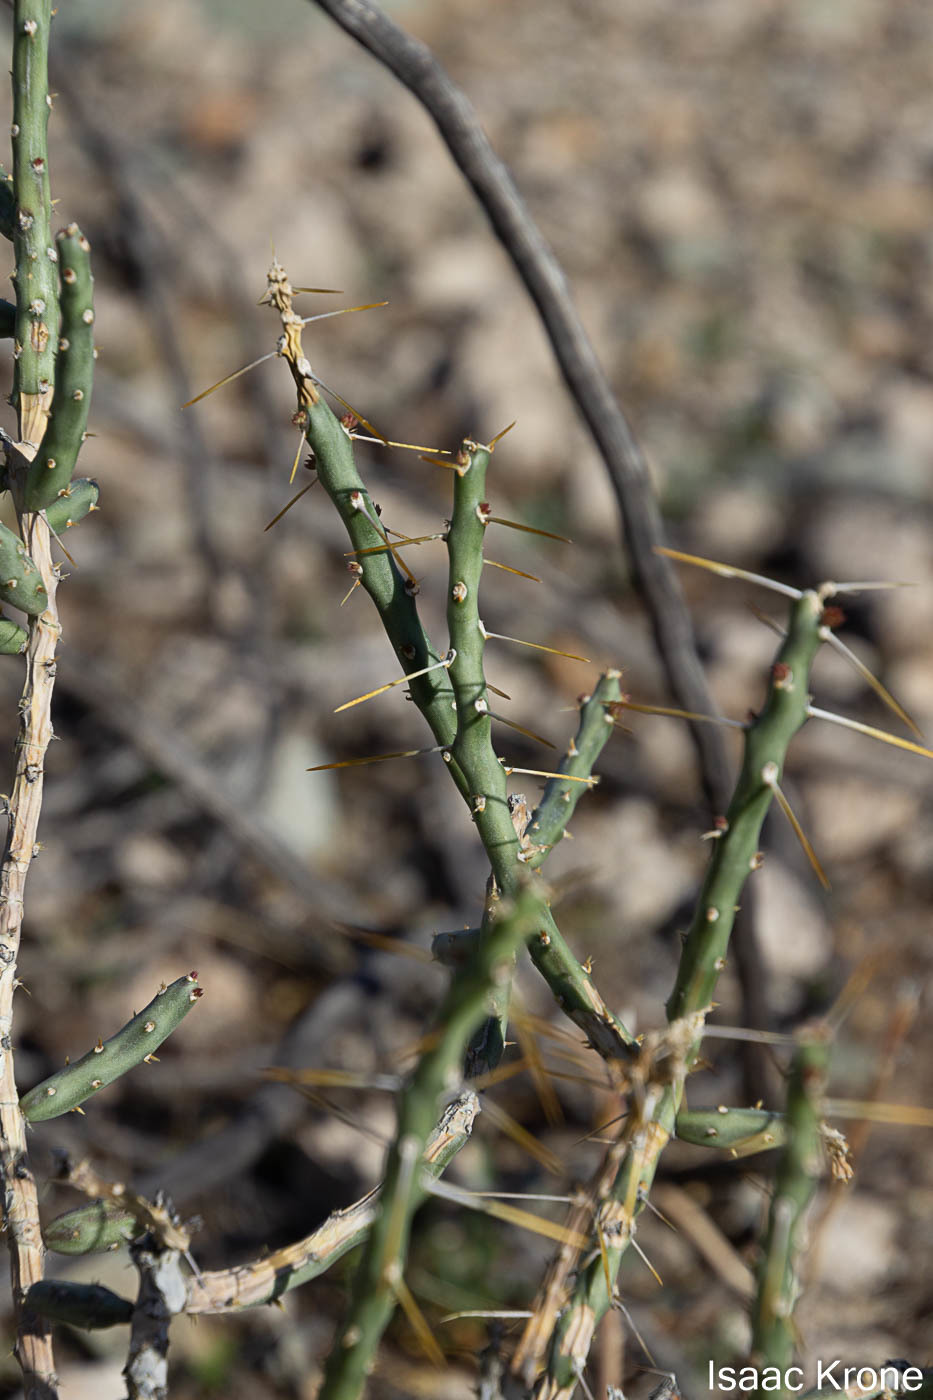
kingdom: Plantae
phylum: Tracheophyta
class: Magnoliopsida
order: Caryophyllales
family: Cactaceae
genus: Cylindropuntia
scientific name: Cylindropuntia leptocaulis
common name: Christmas cactus
